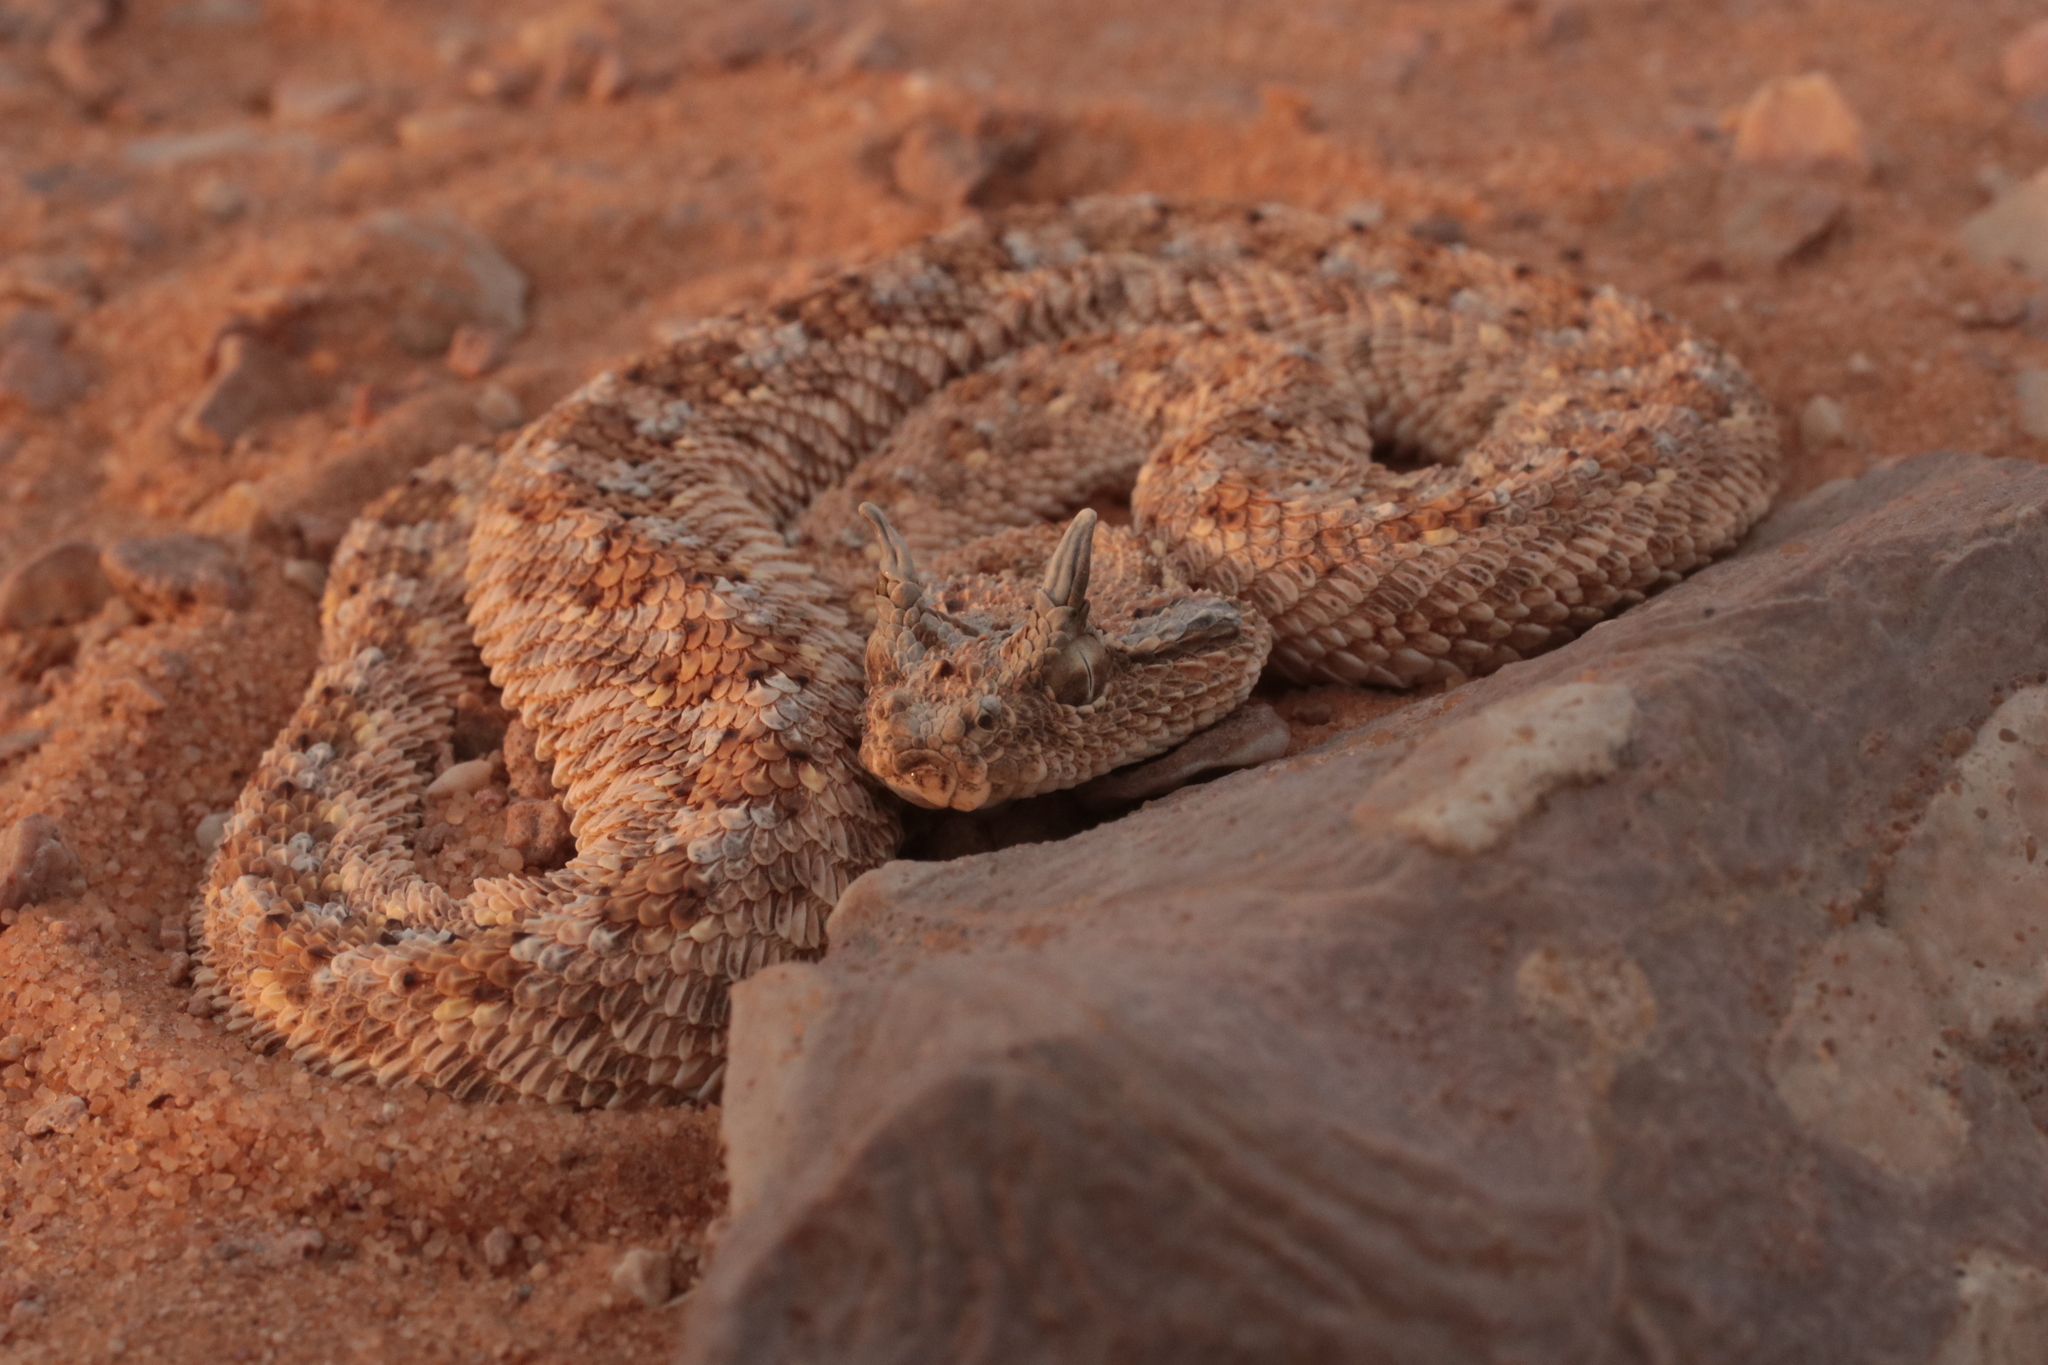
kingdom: Animalia
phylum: Chordata
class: Squamata
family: Viperidae
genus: Cerastes
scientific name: Cerastes gasperettii
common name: Arabian horned viper
